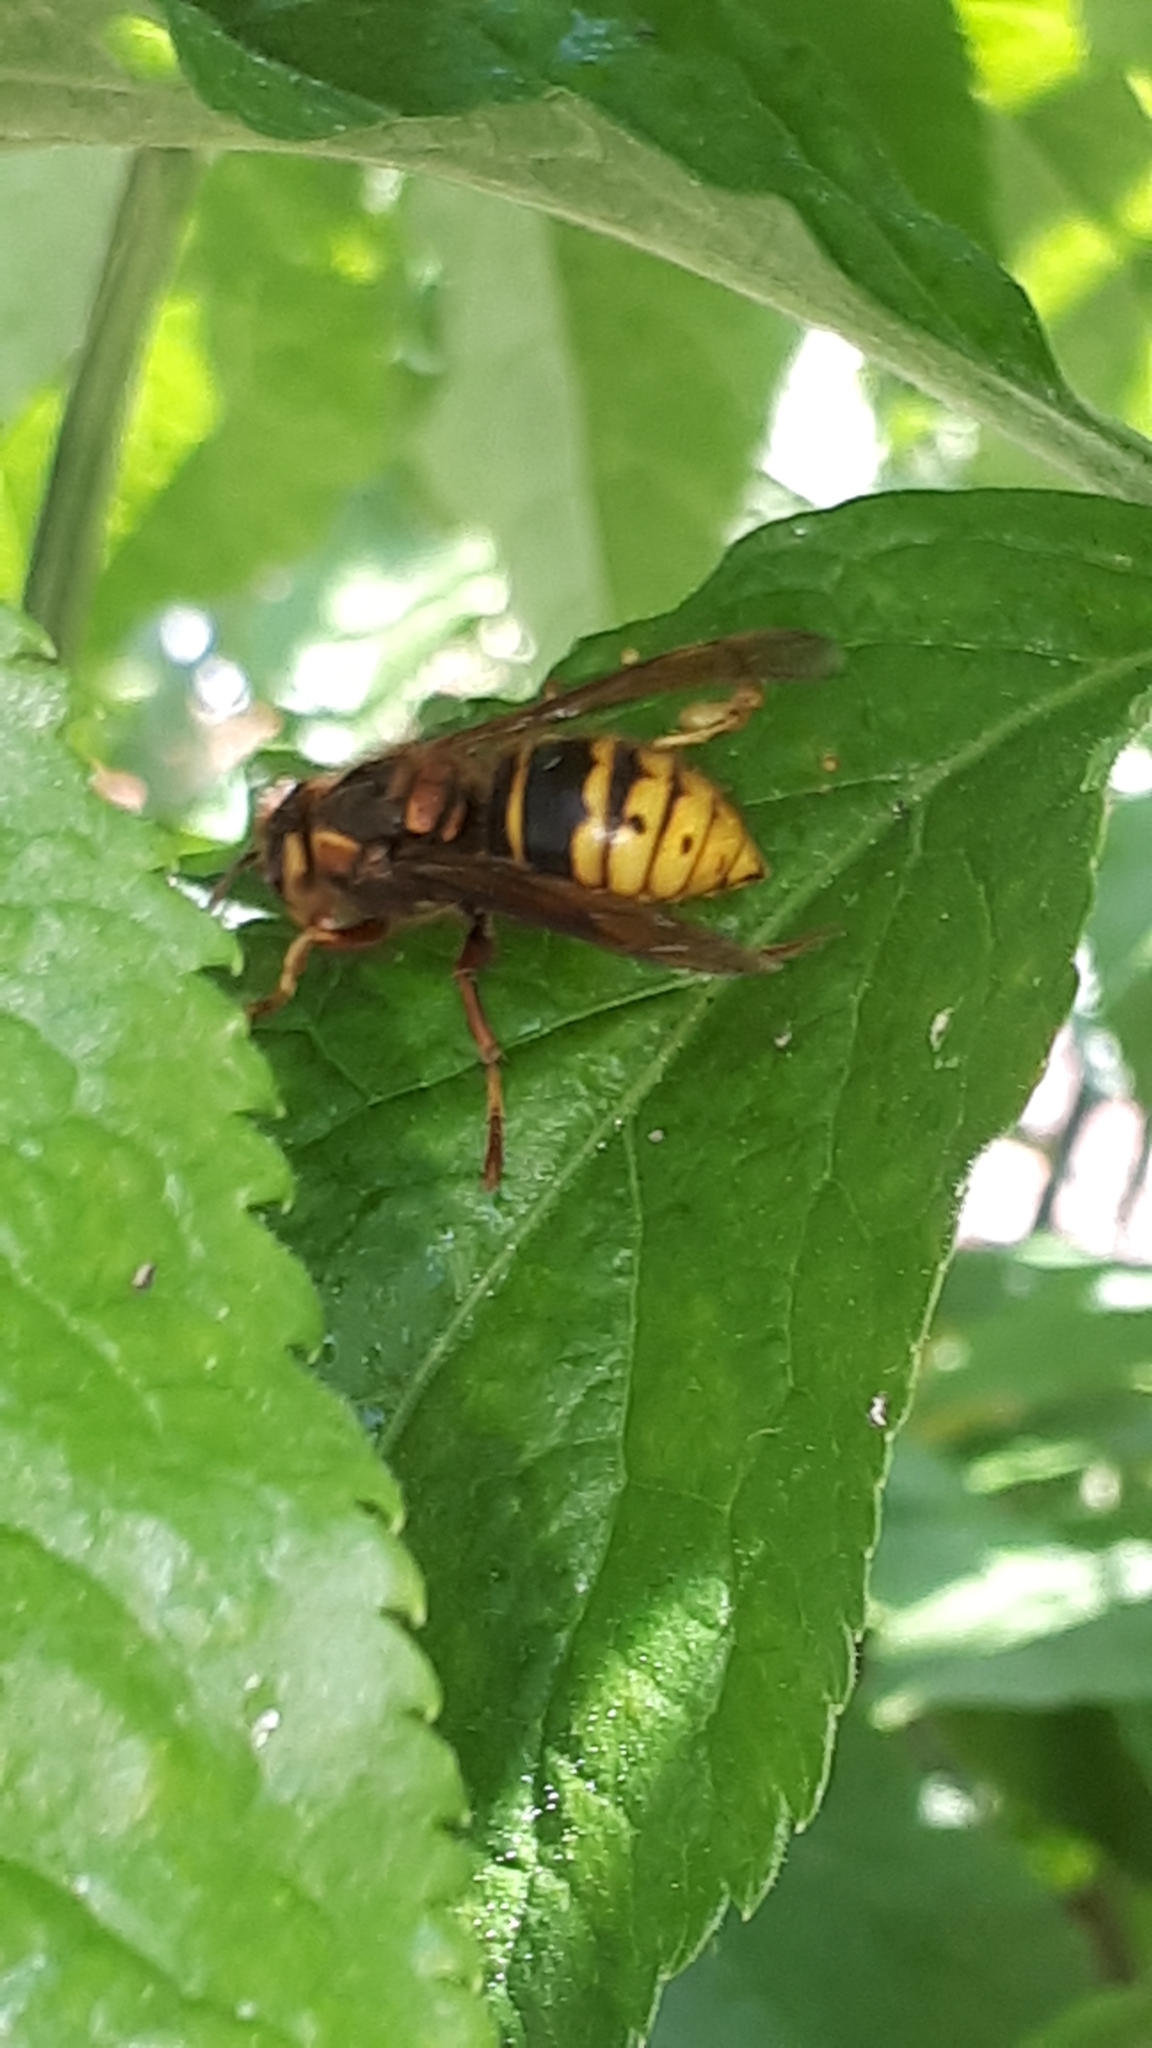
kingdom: Animalia
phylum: Arthropoda
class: Insecta
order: Hymenoptera
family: Vespidae
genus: Dolichovespula
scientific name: Dolichovespula media
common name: Median wasp
